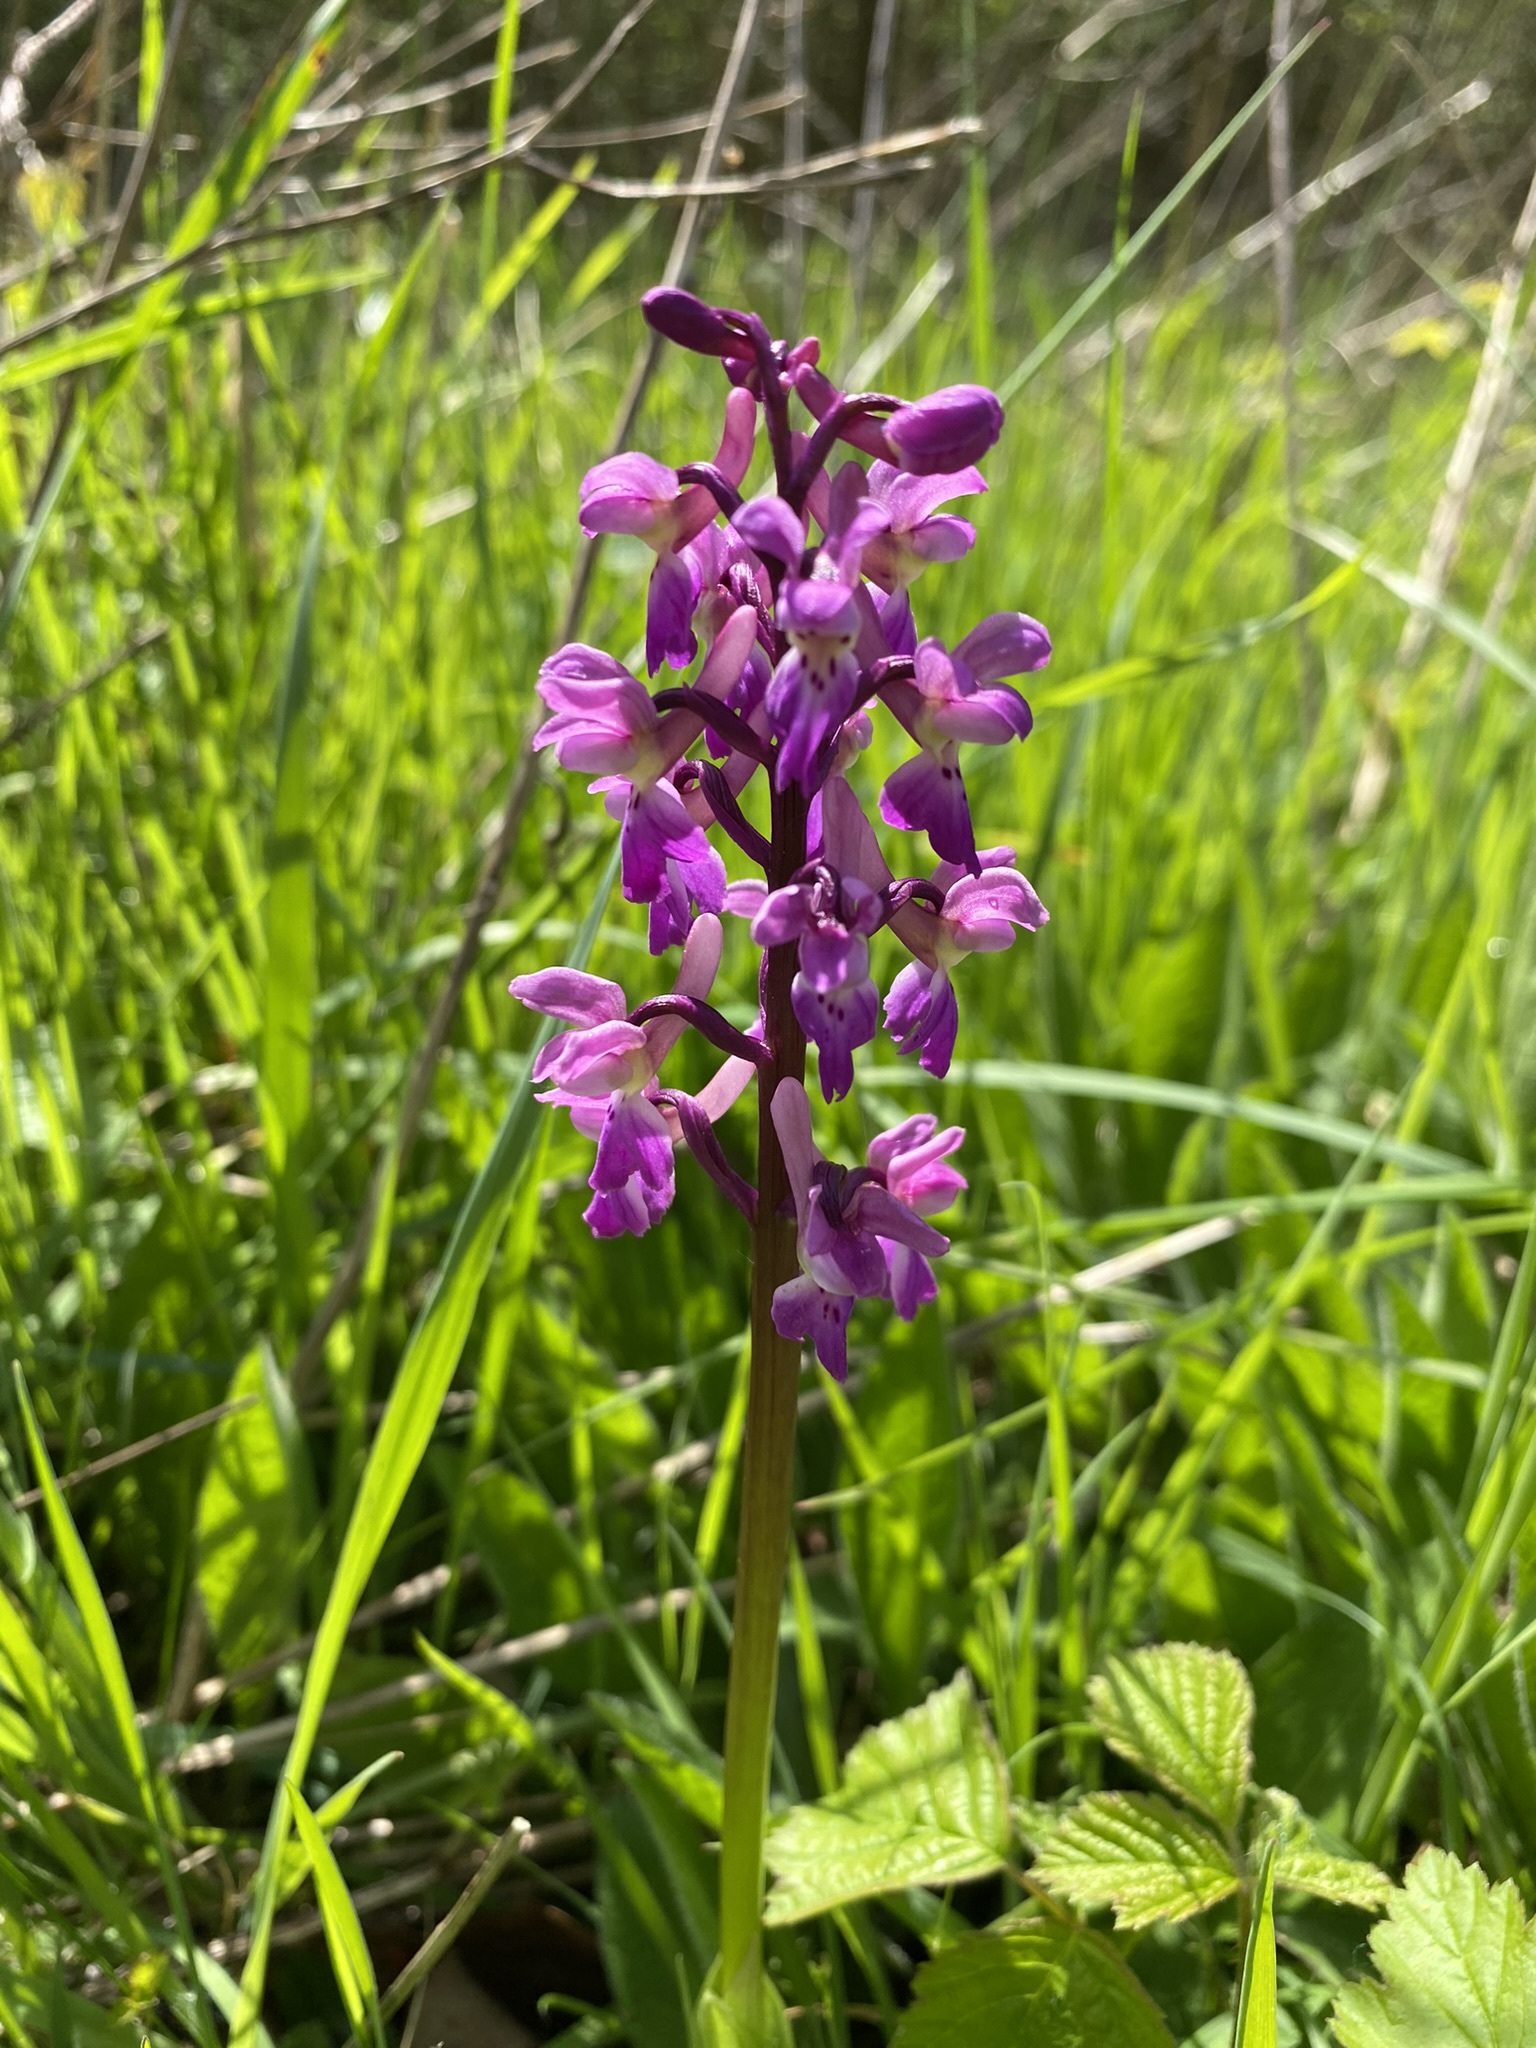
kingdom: Plantae
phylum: Tracheophyta
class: Liliopsida
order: Asparagales
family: Orchidaceae
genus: Orchis
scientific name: Orchis mascula
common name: Early-purple orchid
